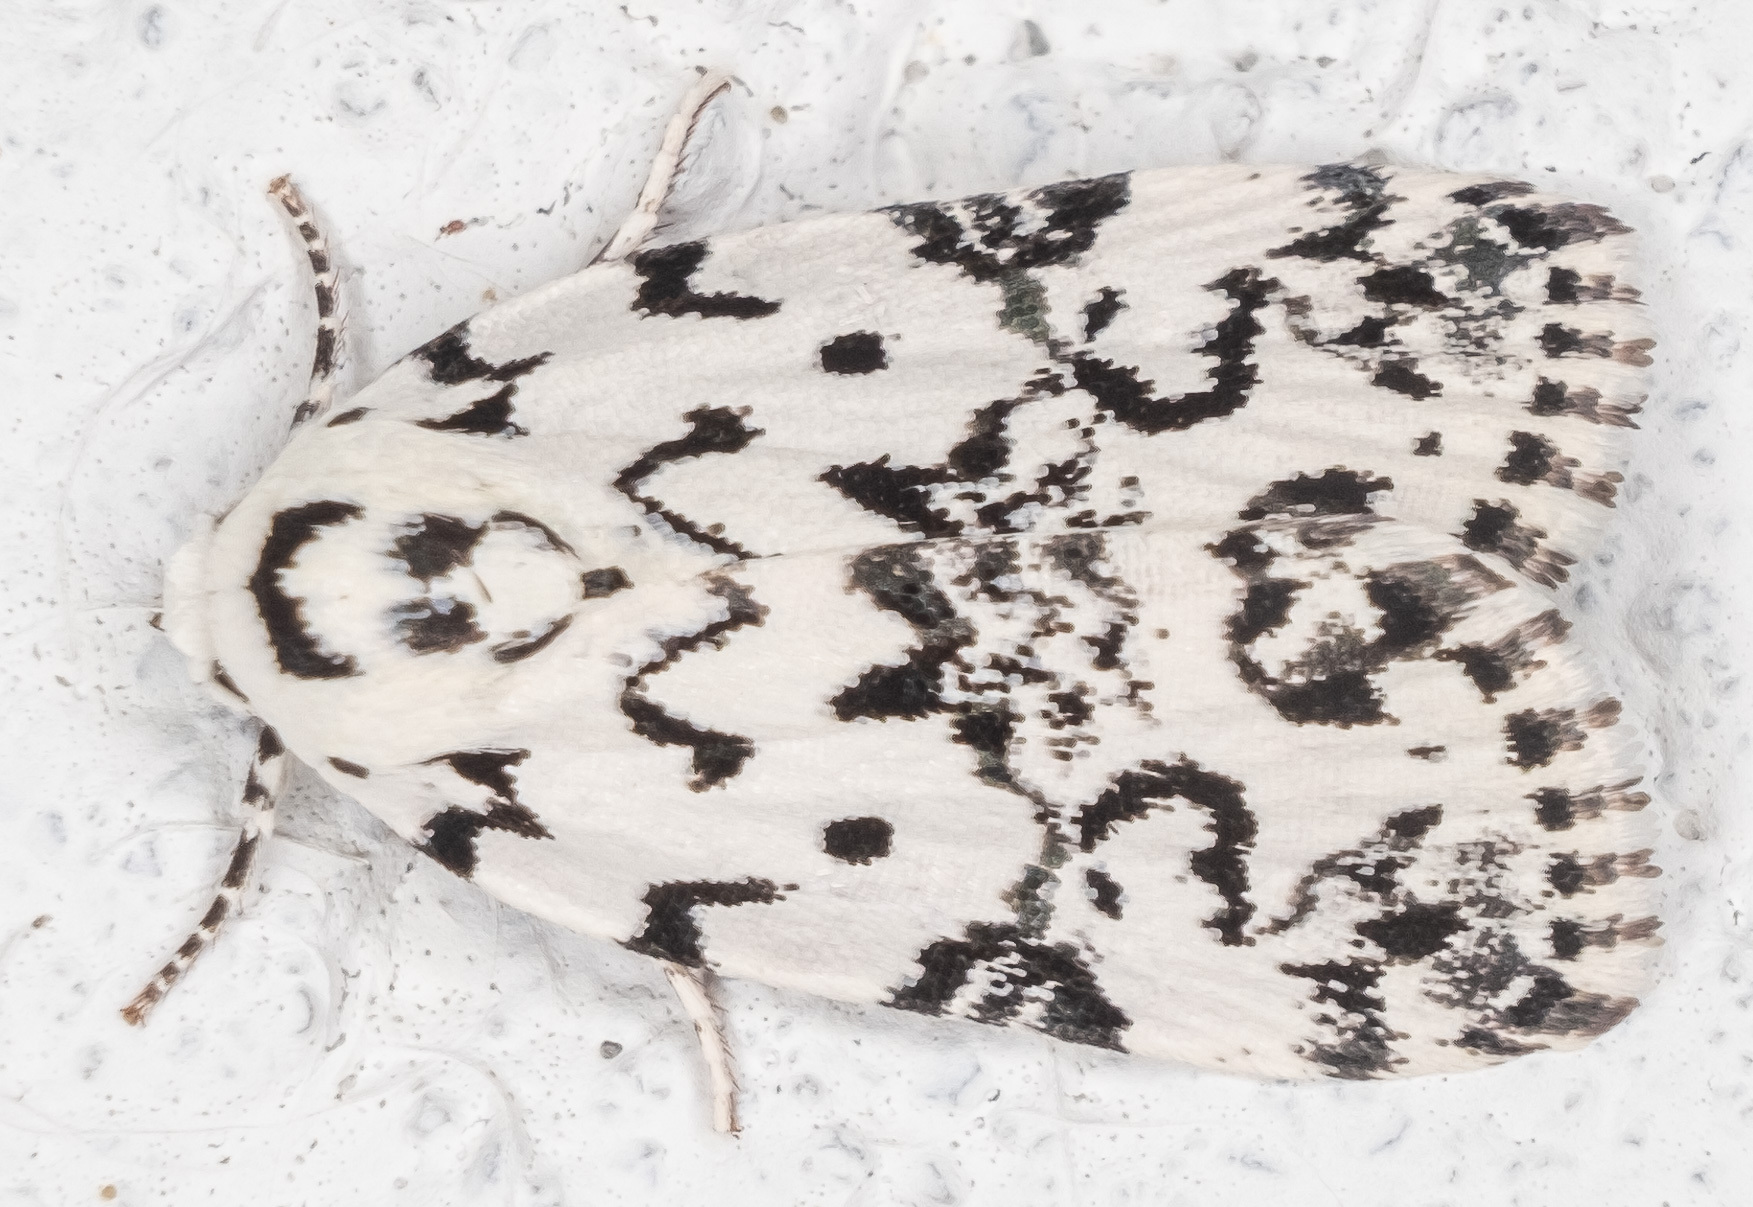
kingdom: Animalia
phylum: Arthropoda
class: Insecta
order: Lepidoptera
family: Noctuidae
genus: Polygrammate
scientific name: Polygrammate hebraeicum
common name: Hebrew moth
